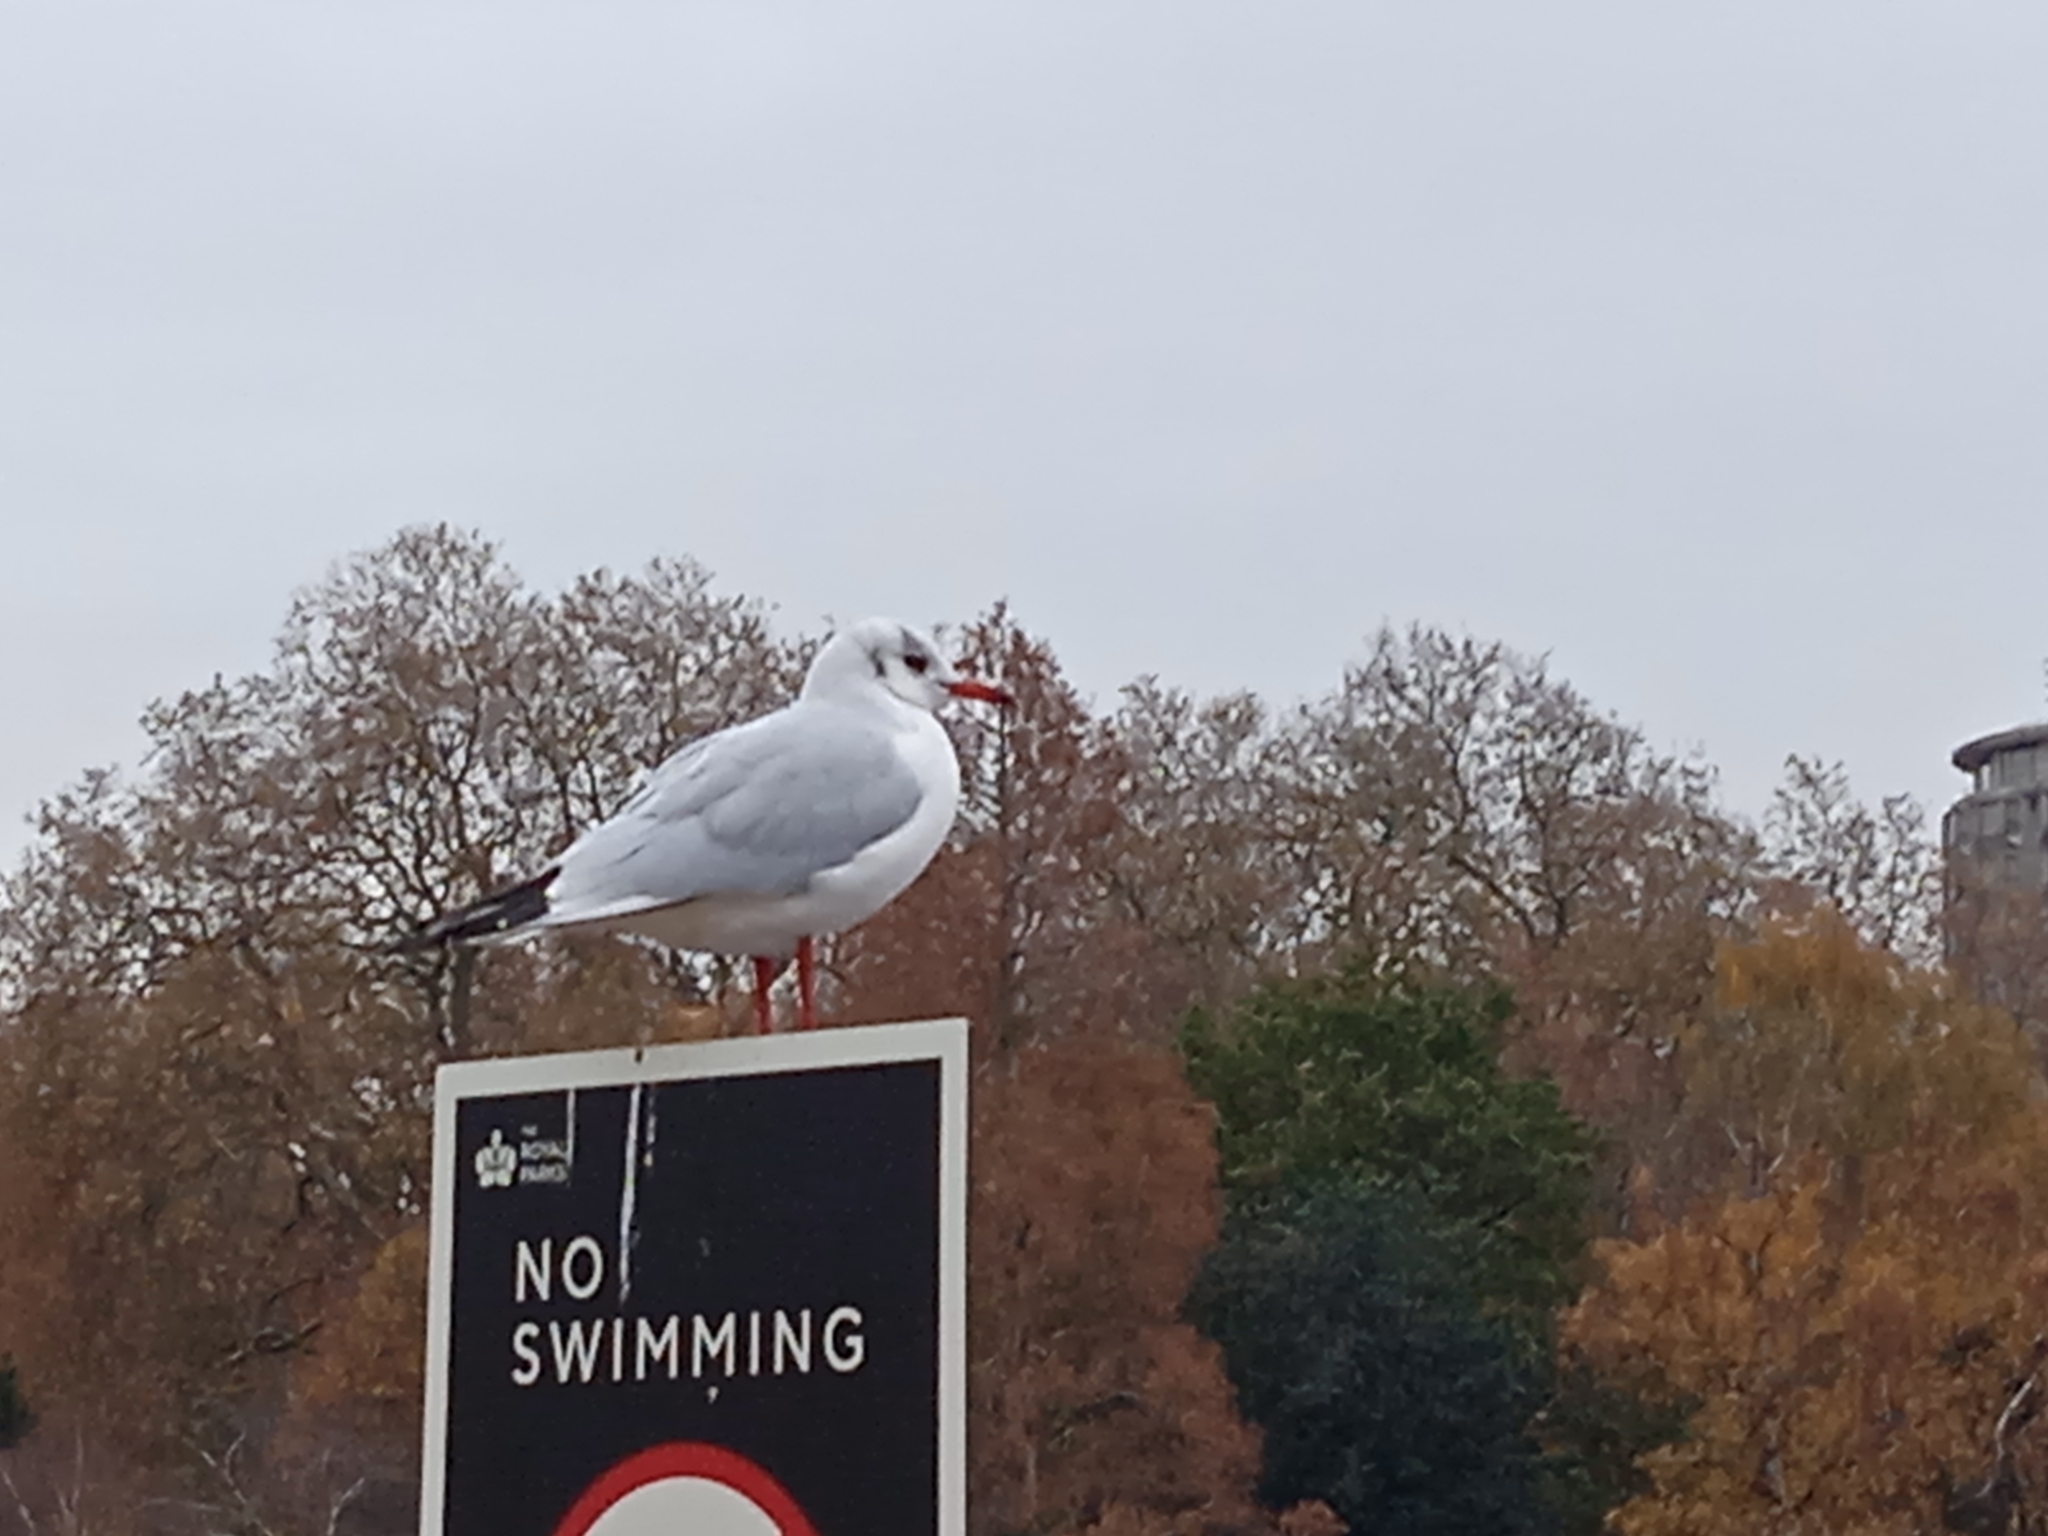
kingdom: Animalia
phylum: Chordata
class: Aves
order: Charadriiformes
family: Laridae
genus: Chroicocephalus
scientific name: Chroicocephalus ridibundus
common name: Black-headed gull
